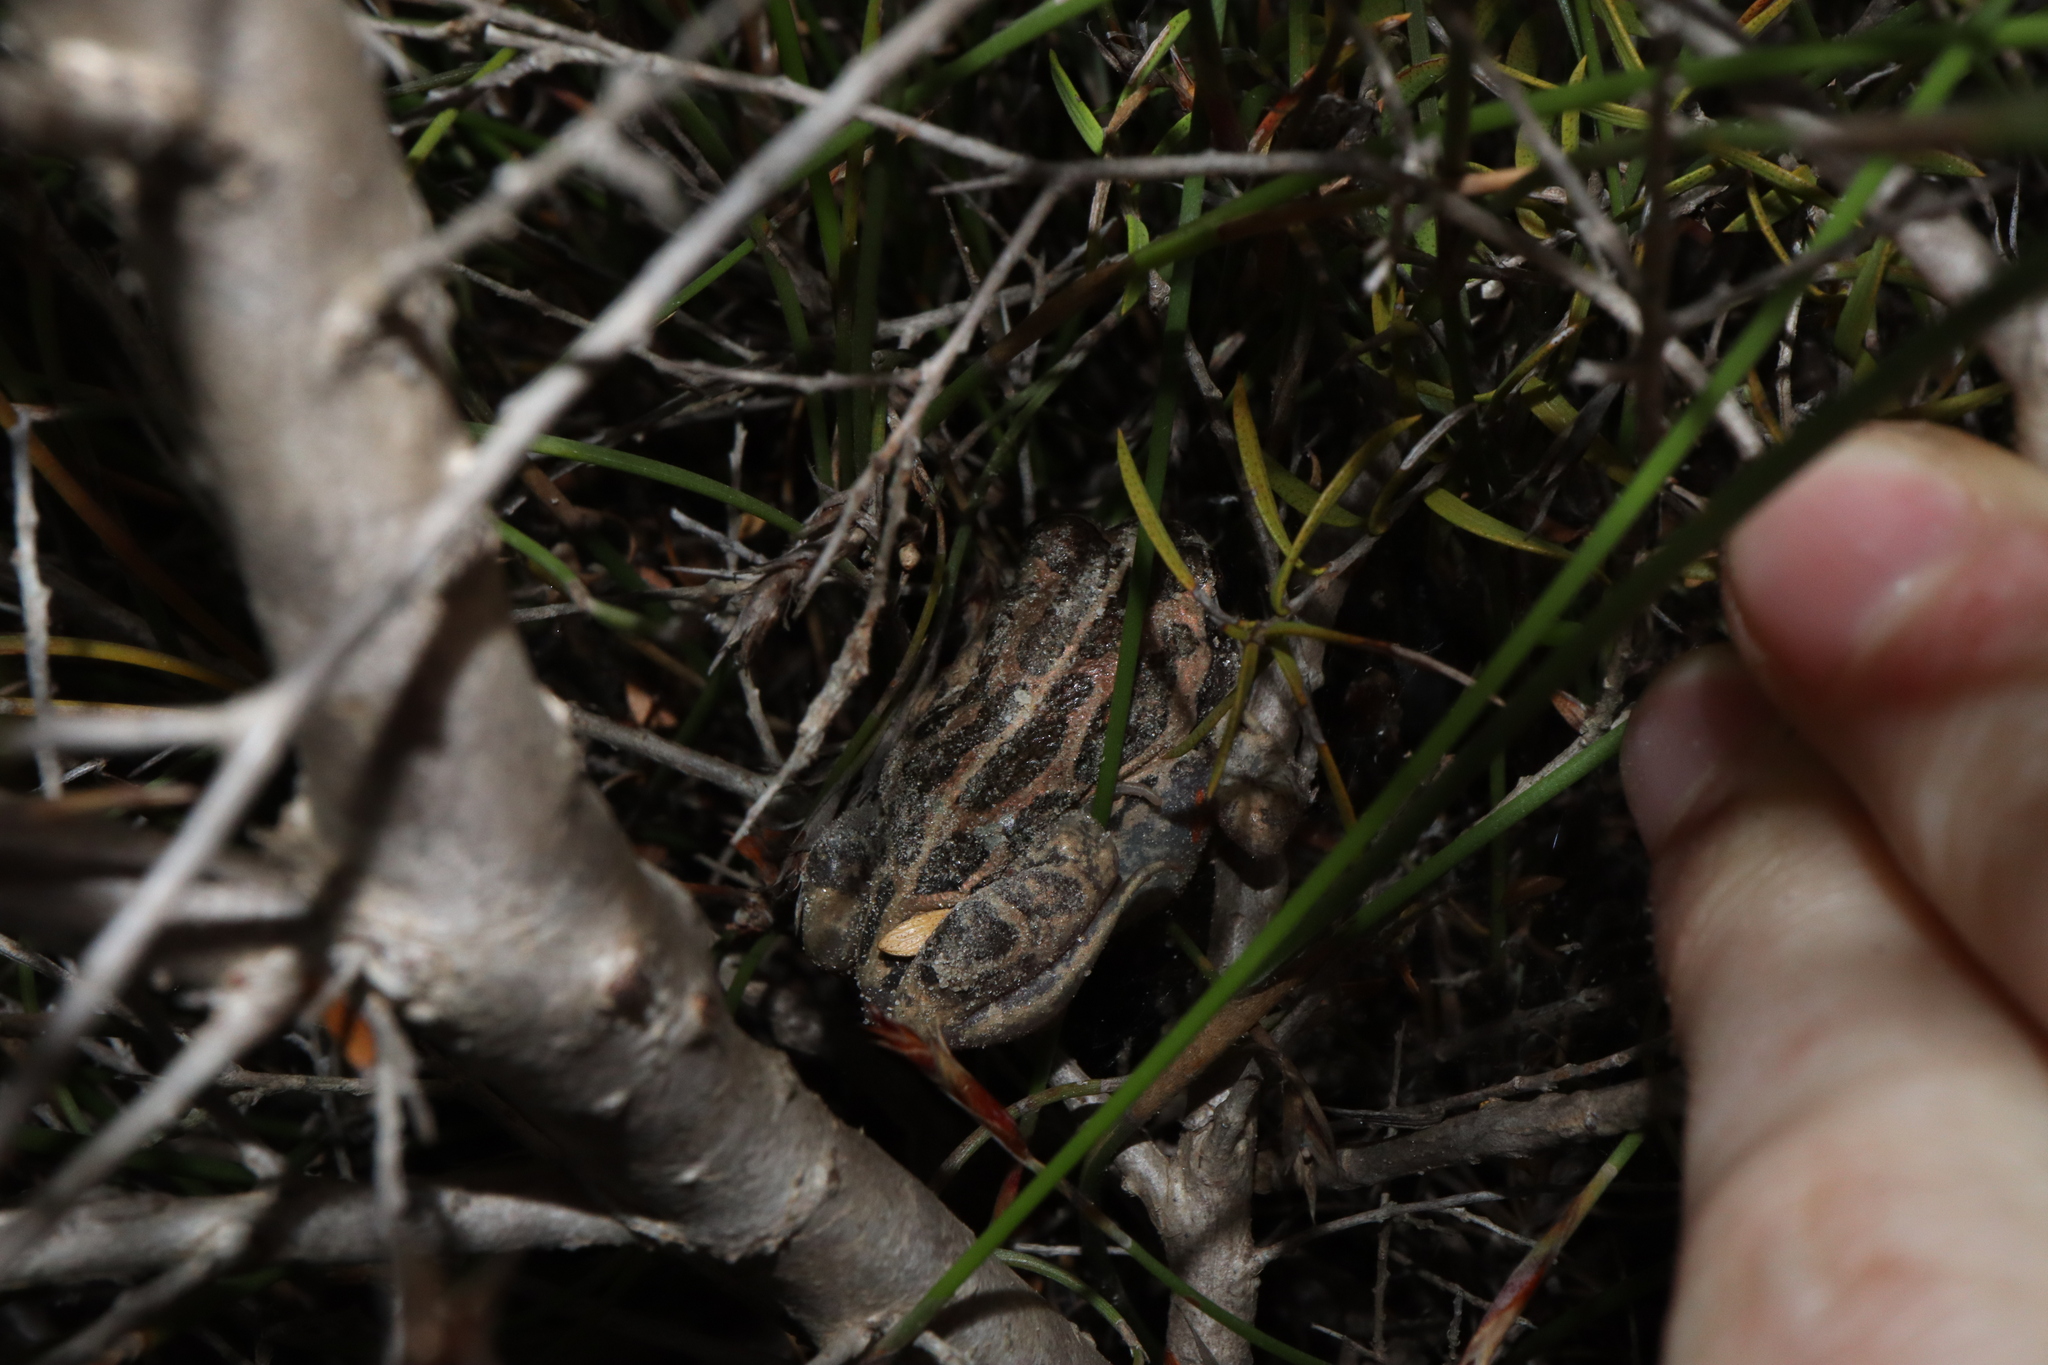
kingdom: Animalia
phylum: Chordata
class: Amphibia
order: Anura
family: Limnodynastidae
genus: Limnodynastes
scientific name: Limnodynastes dorsalis
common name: Banjo frog
